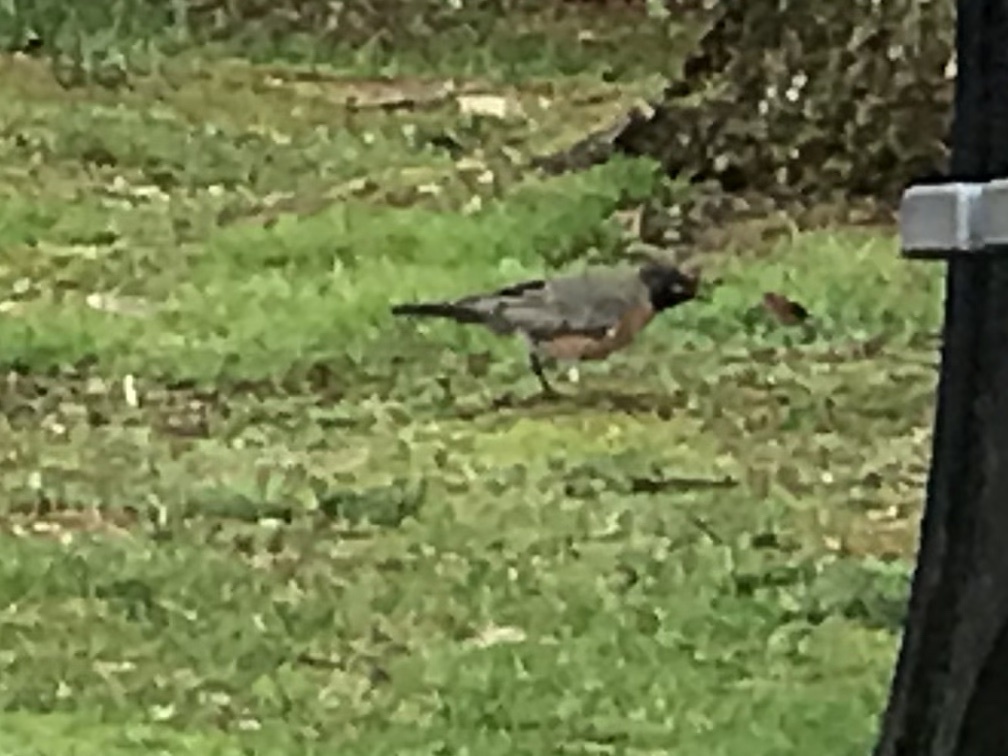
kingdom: Animalia
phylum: Chordata
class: Aves
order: Passeriformes
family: Turdidae
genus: Turdus
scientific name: Turdus migratorius
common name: American robin
